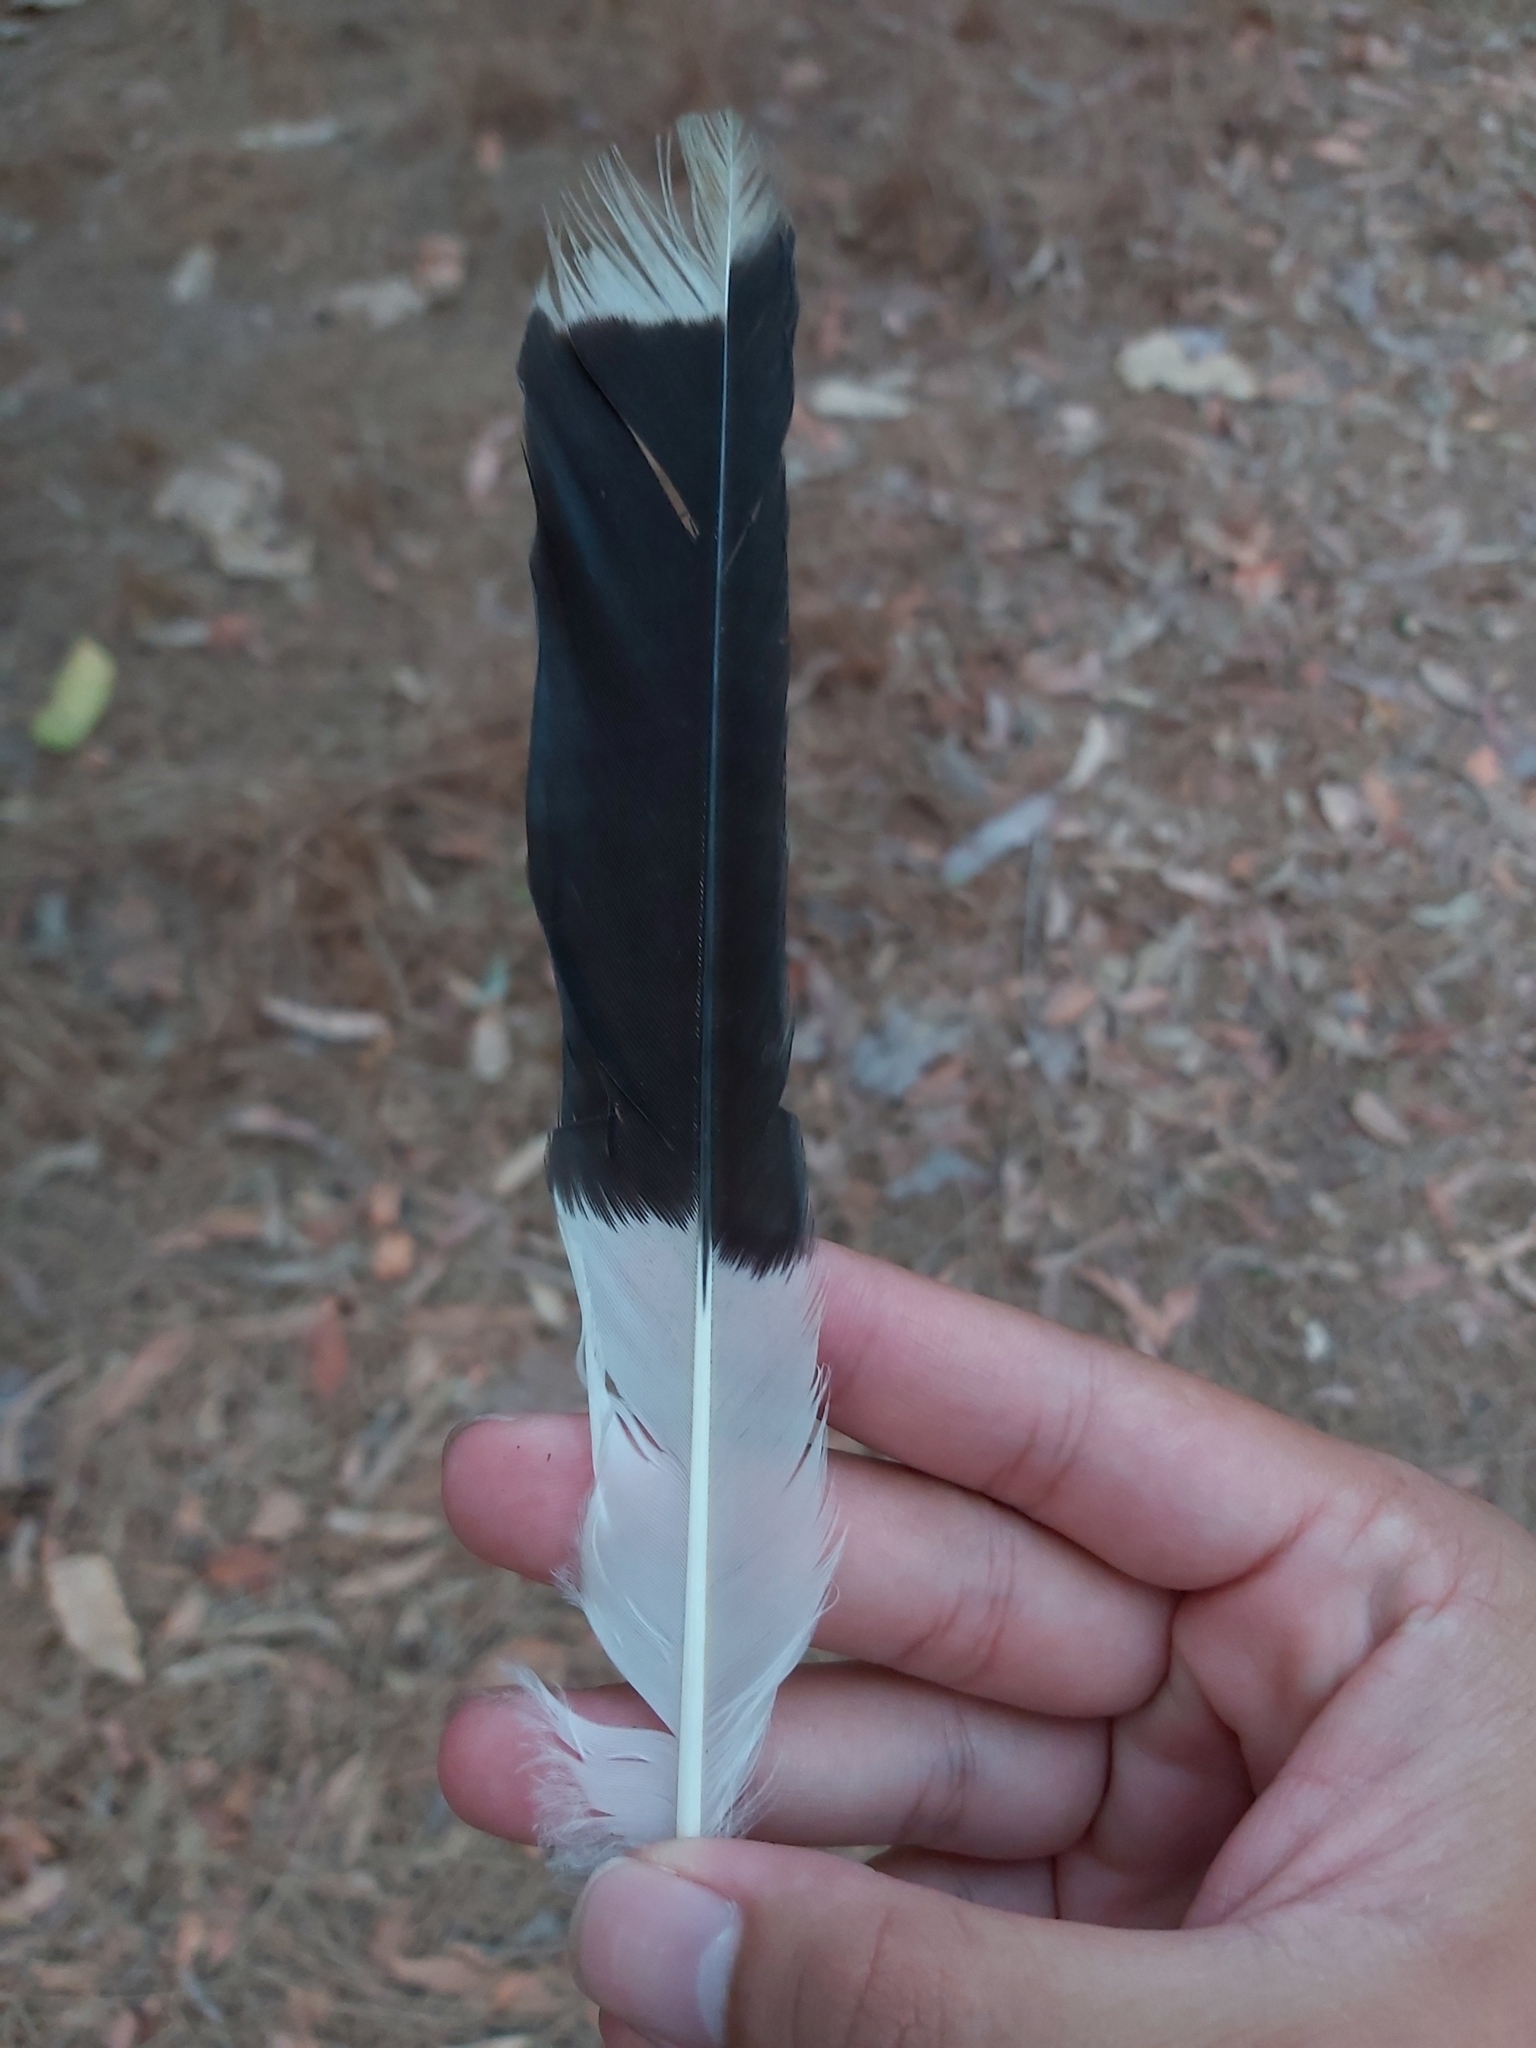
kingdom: Animalia
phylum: Chordata
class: Aves
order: Passeriformes
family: Cracticidae
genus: Strepera
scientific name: Strepera graculina
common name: Pied currawong
